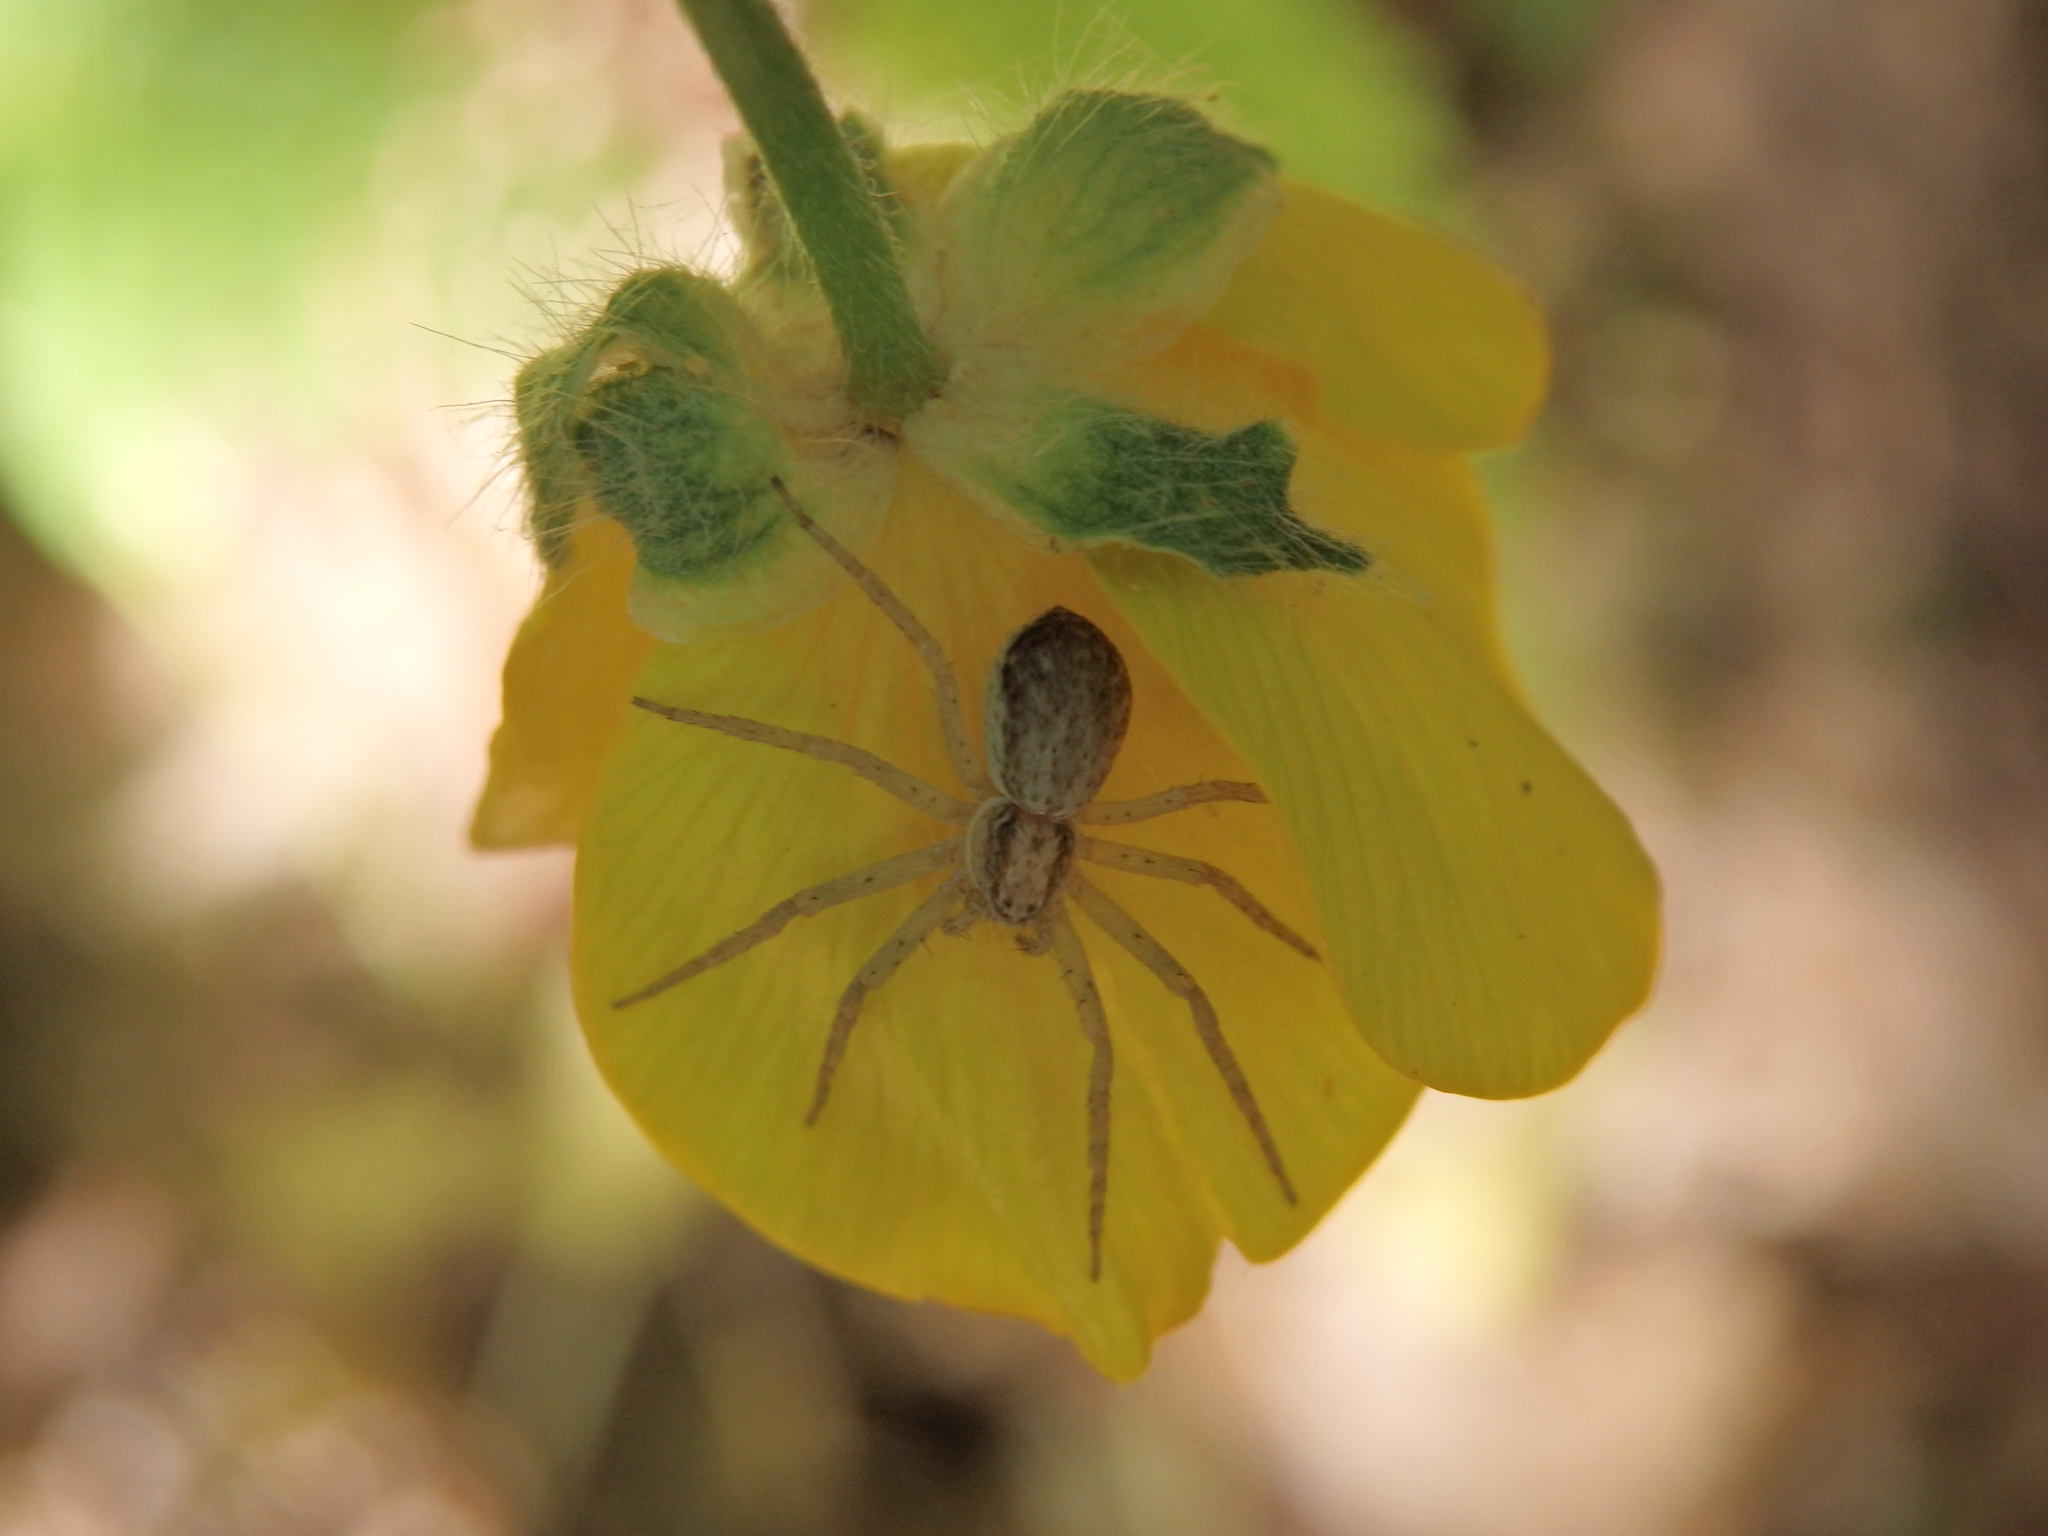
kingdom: Animalia
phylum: Arthropoda
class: Arachnida
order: Araneae
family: Philodromidae
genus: Philodromus
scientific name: Philodromus dispar
